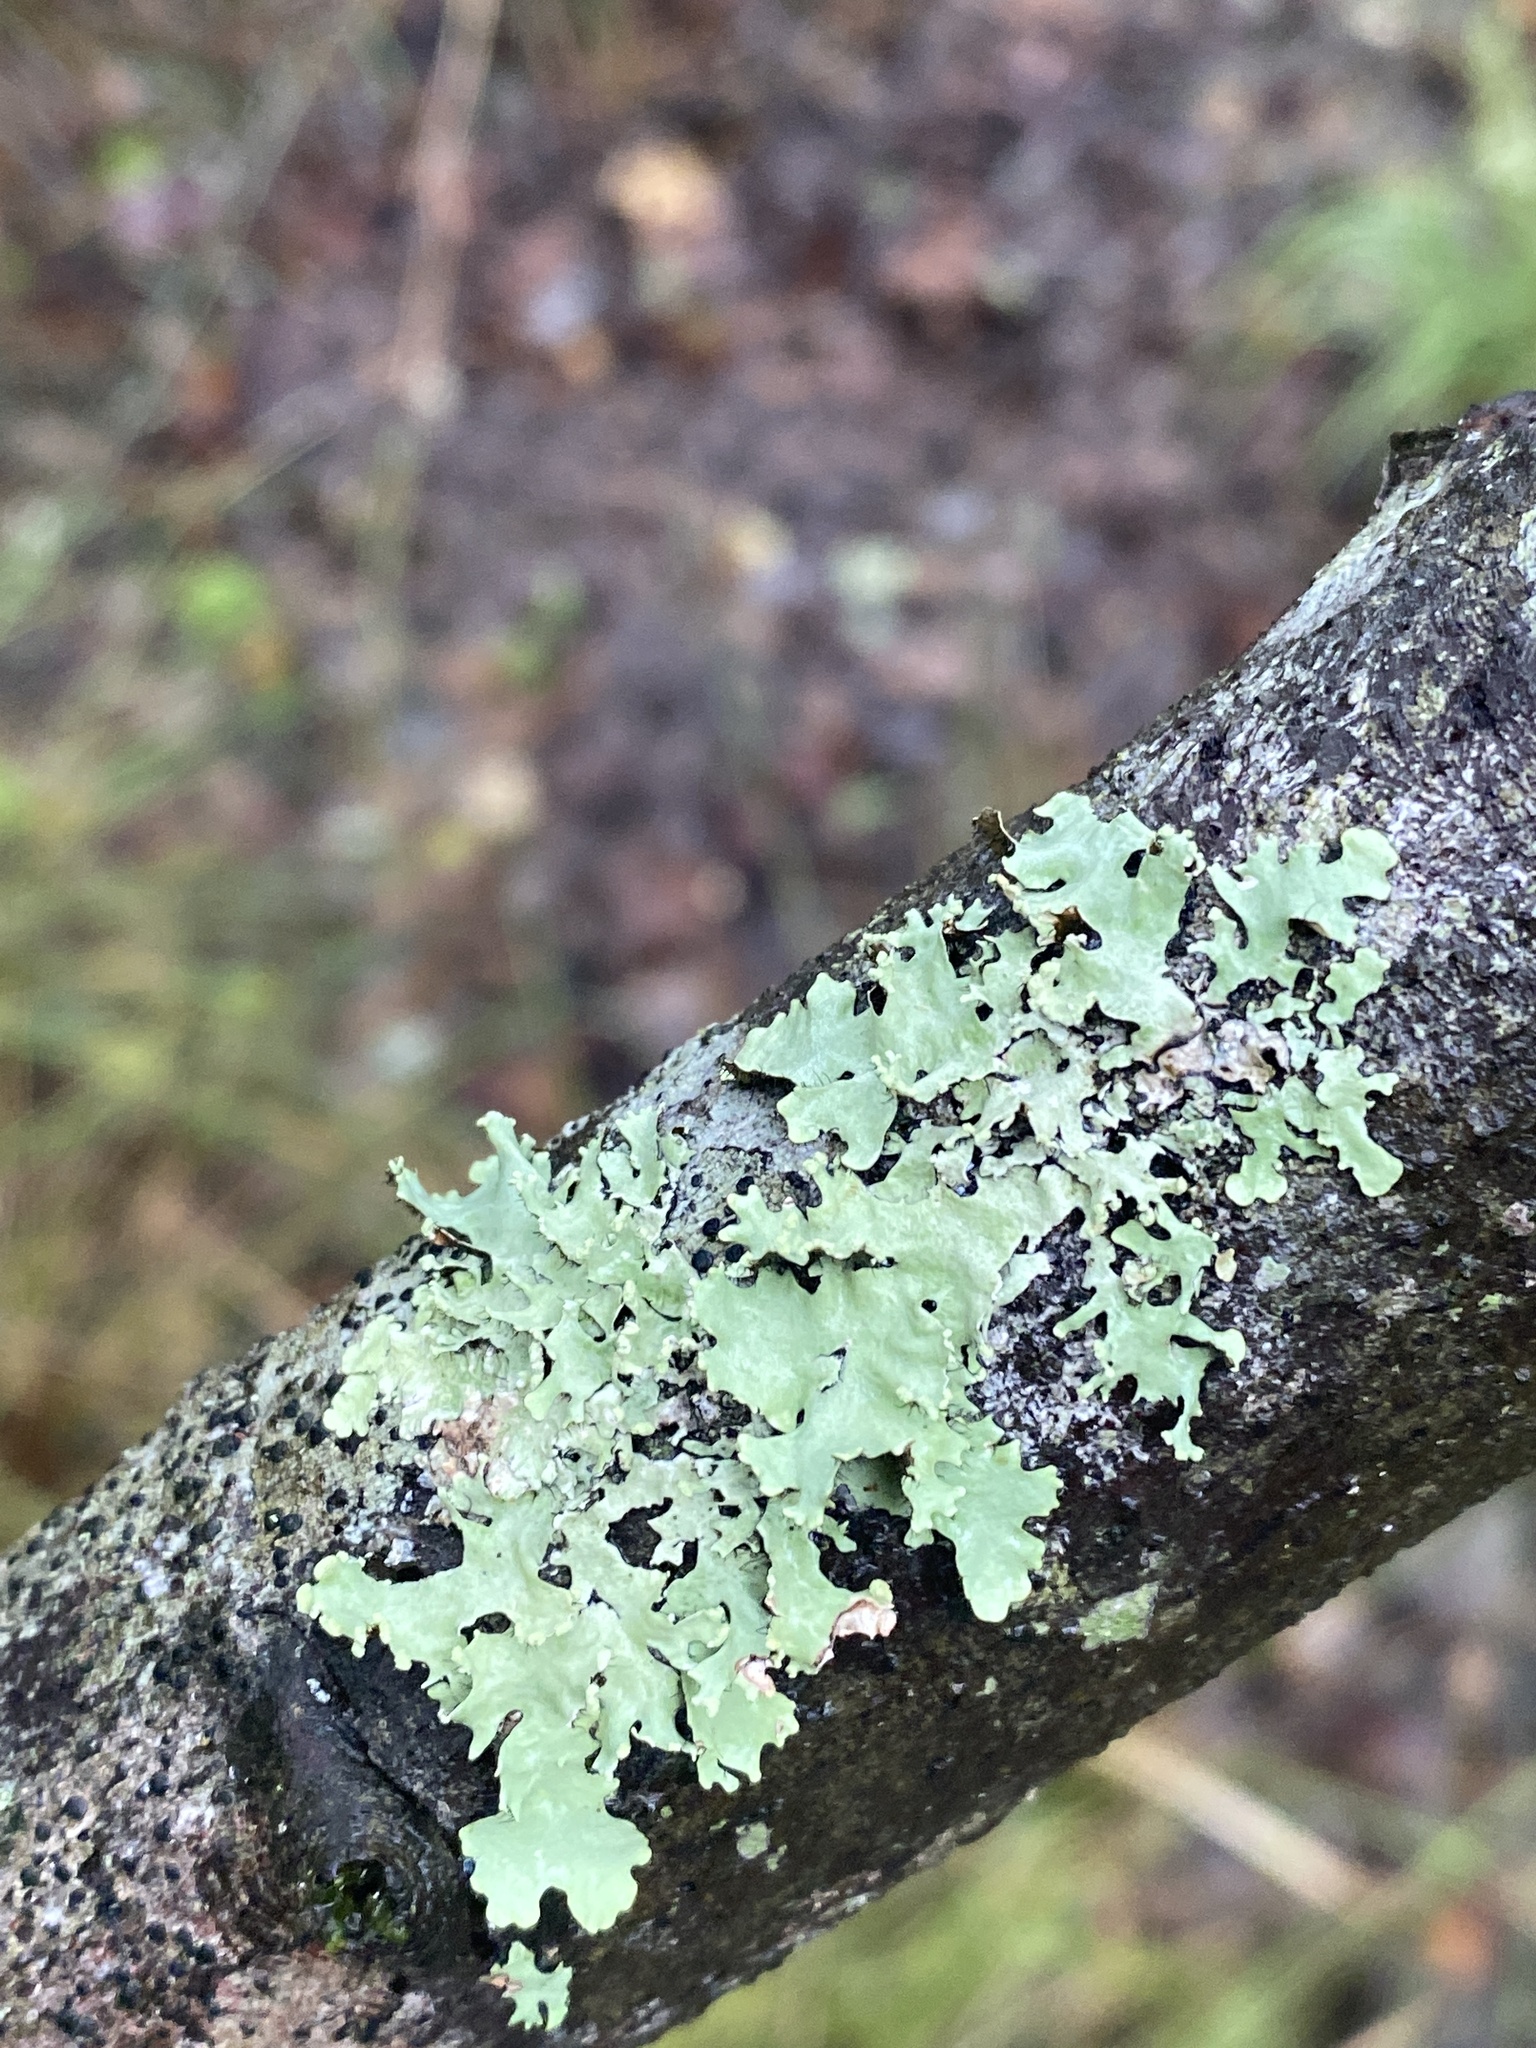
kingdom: Fungi
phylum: Ascomycota
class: Lecanoromycetes
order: Lecanorales
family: Parmeliaceae
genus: Parmotrema
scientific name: Parmotrema reticulatum
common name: Black sheet lichen
